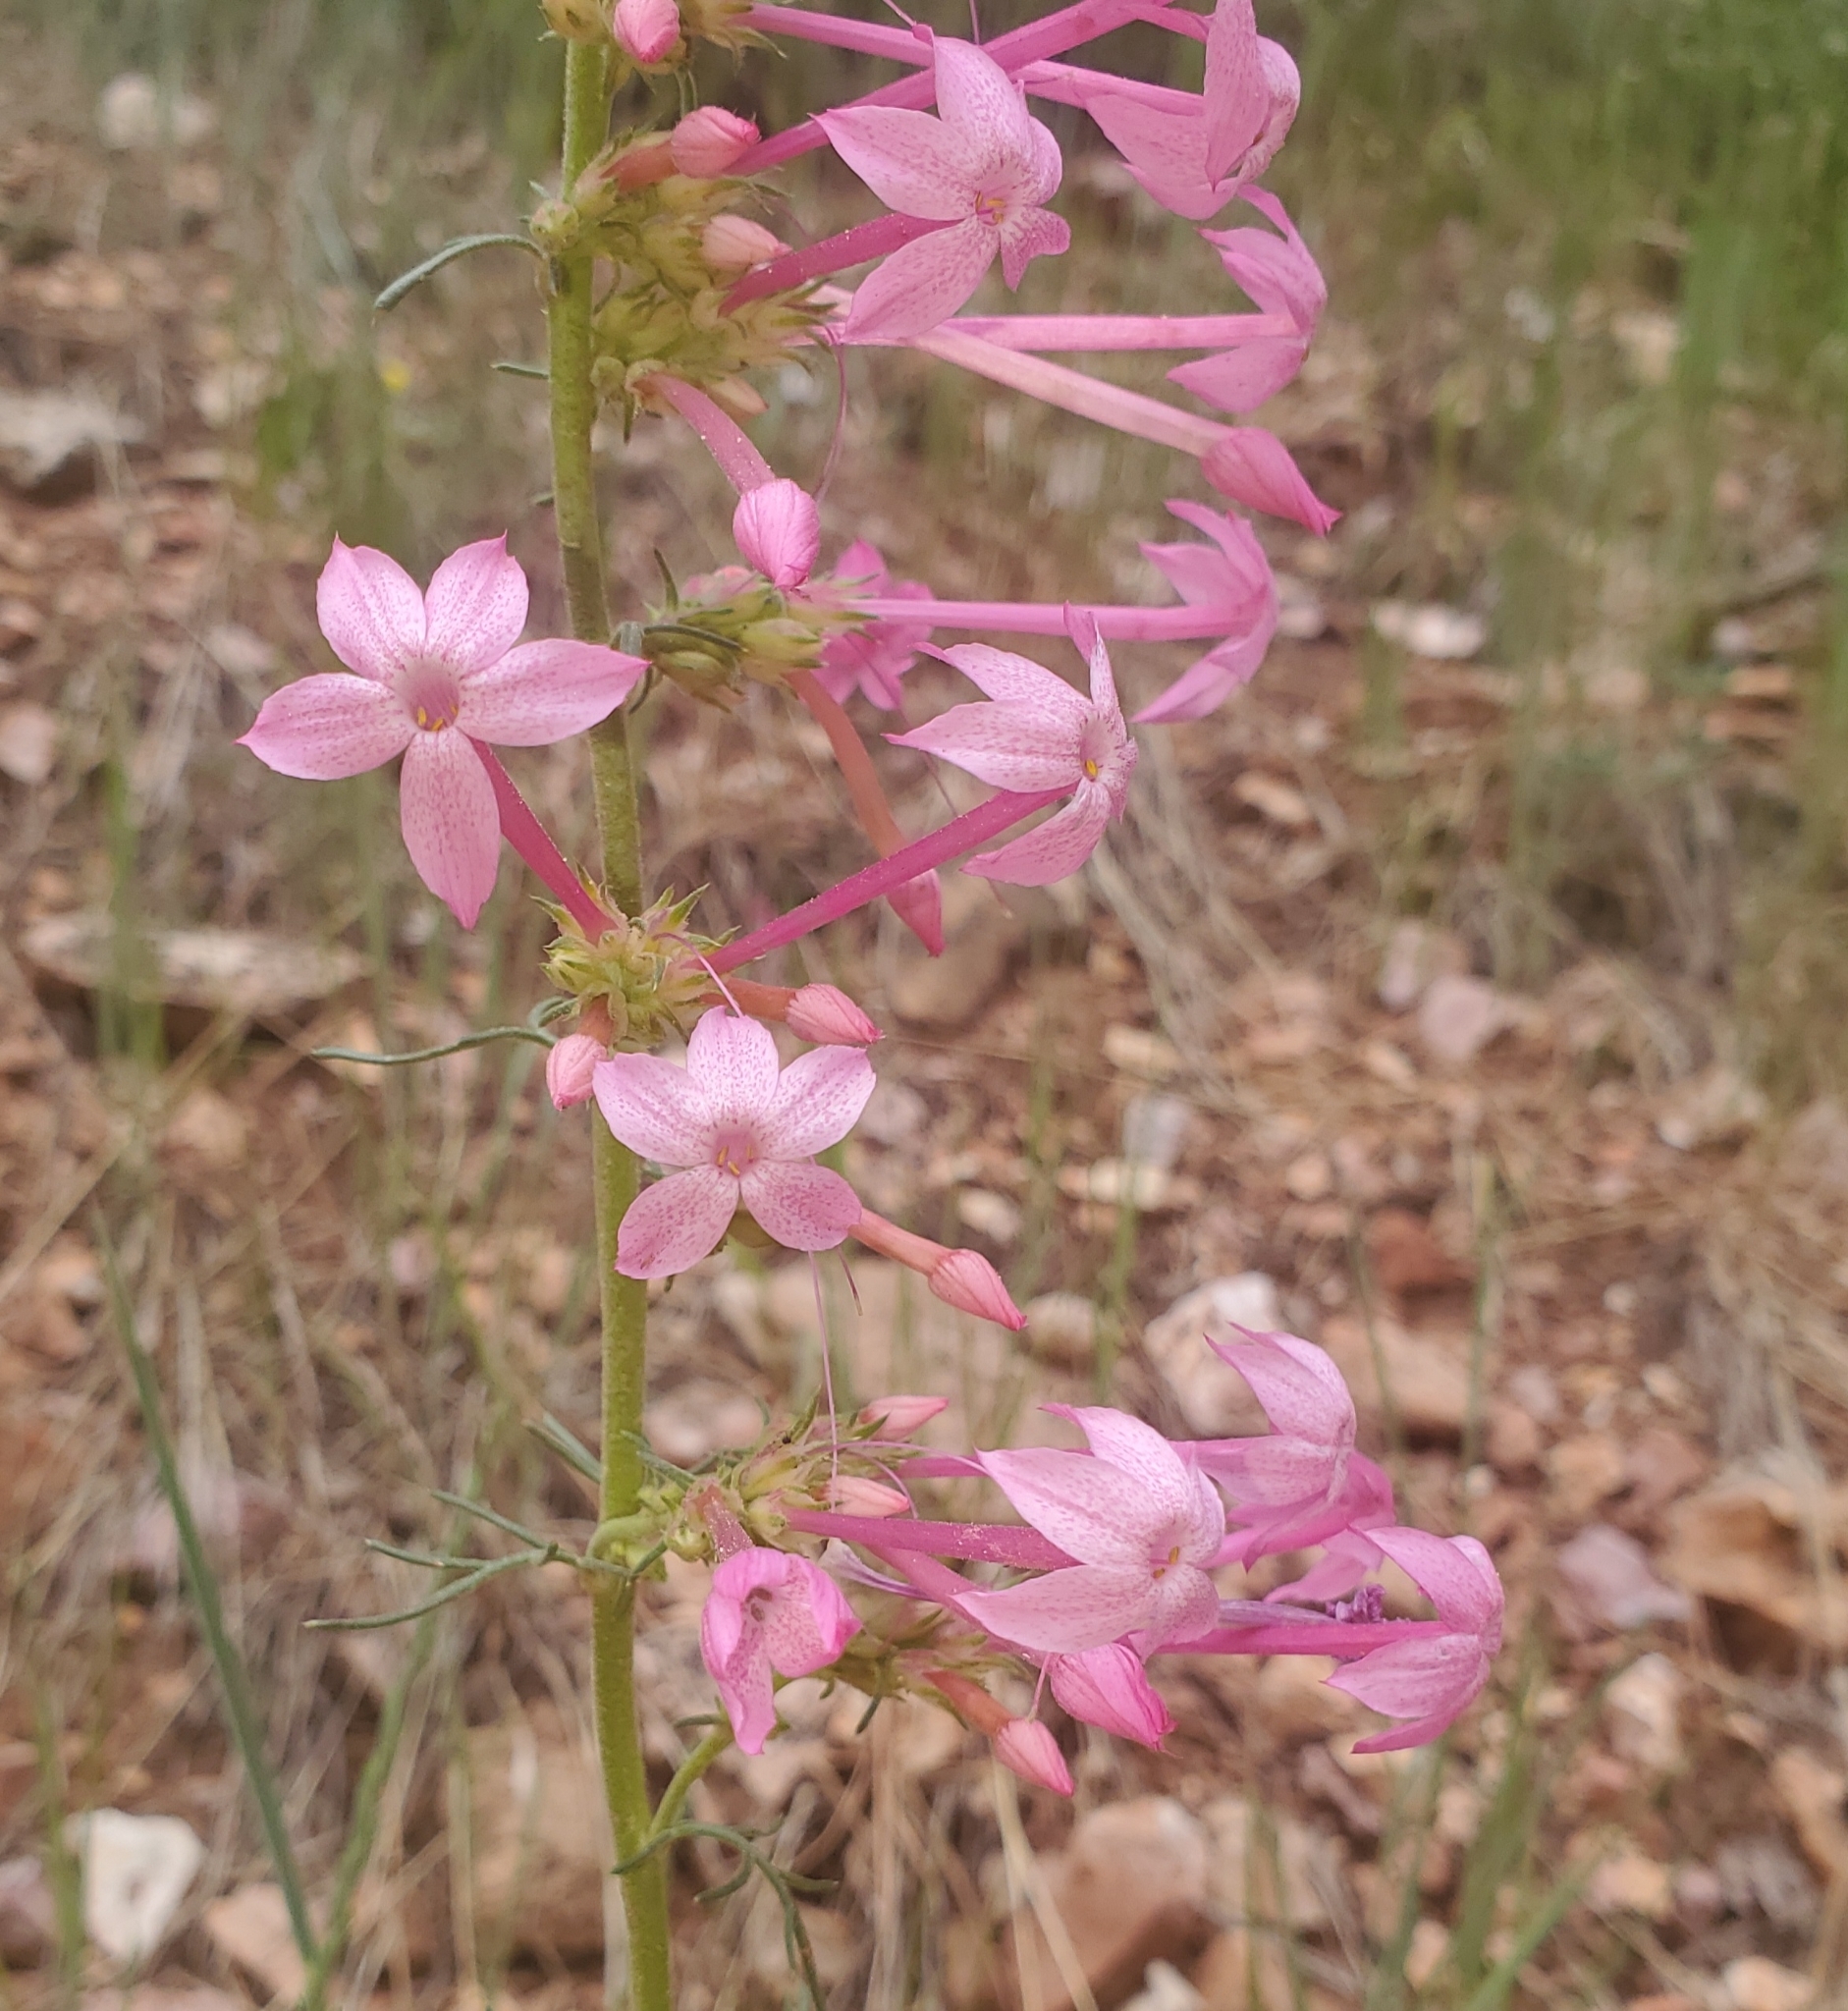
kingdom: Plantae
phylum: Tracheophyta
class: Magnoliopsida
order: Ericales
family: Polemoniaceae
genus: Ipomopsis
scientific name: Ipomopsis tenuituba
